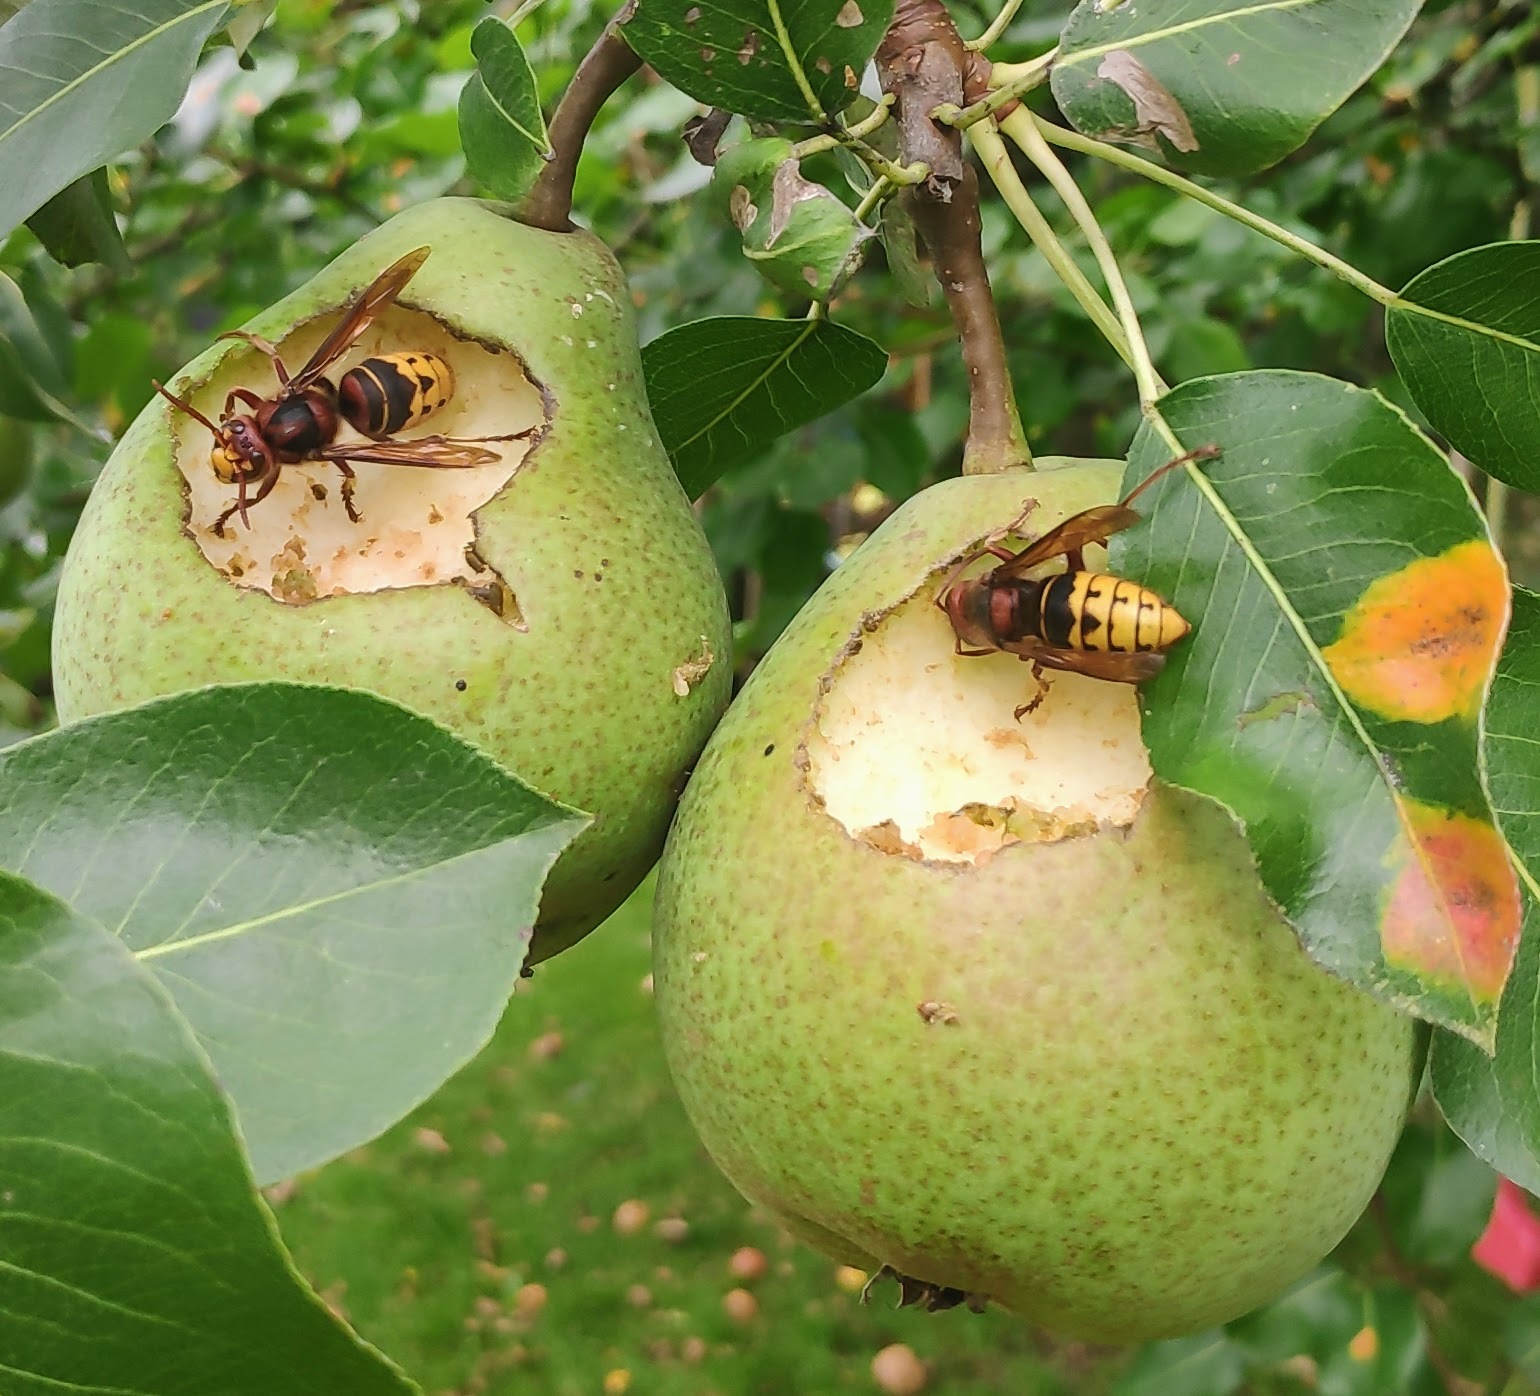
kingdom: Animalia
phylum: Arthropoda
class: Insecta
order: Hymenoptera
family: Vespidae
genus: Vespa
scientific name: Vespa crabro
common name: Hornet
